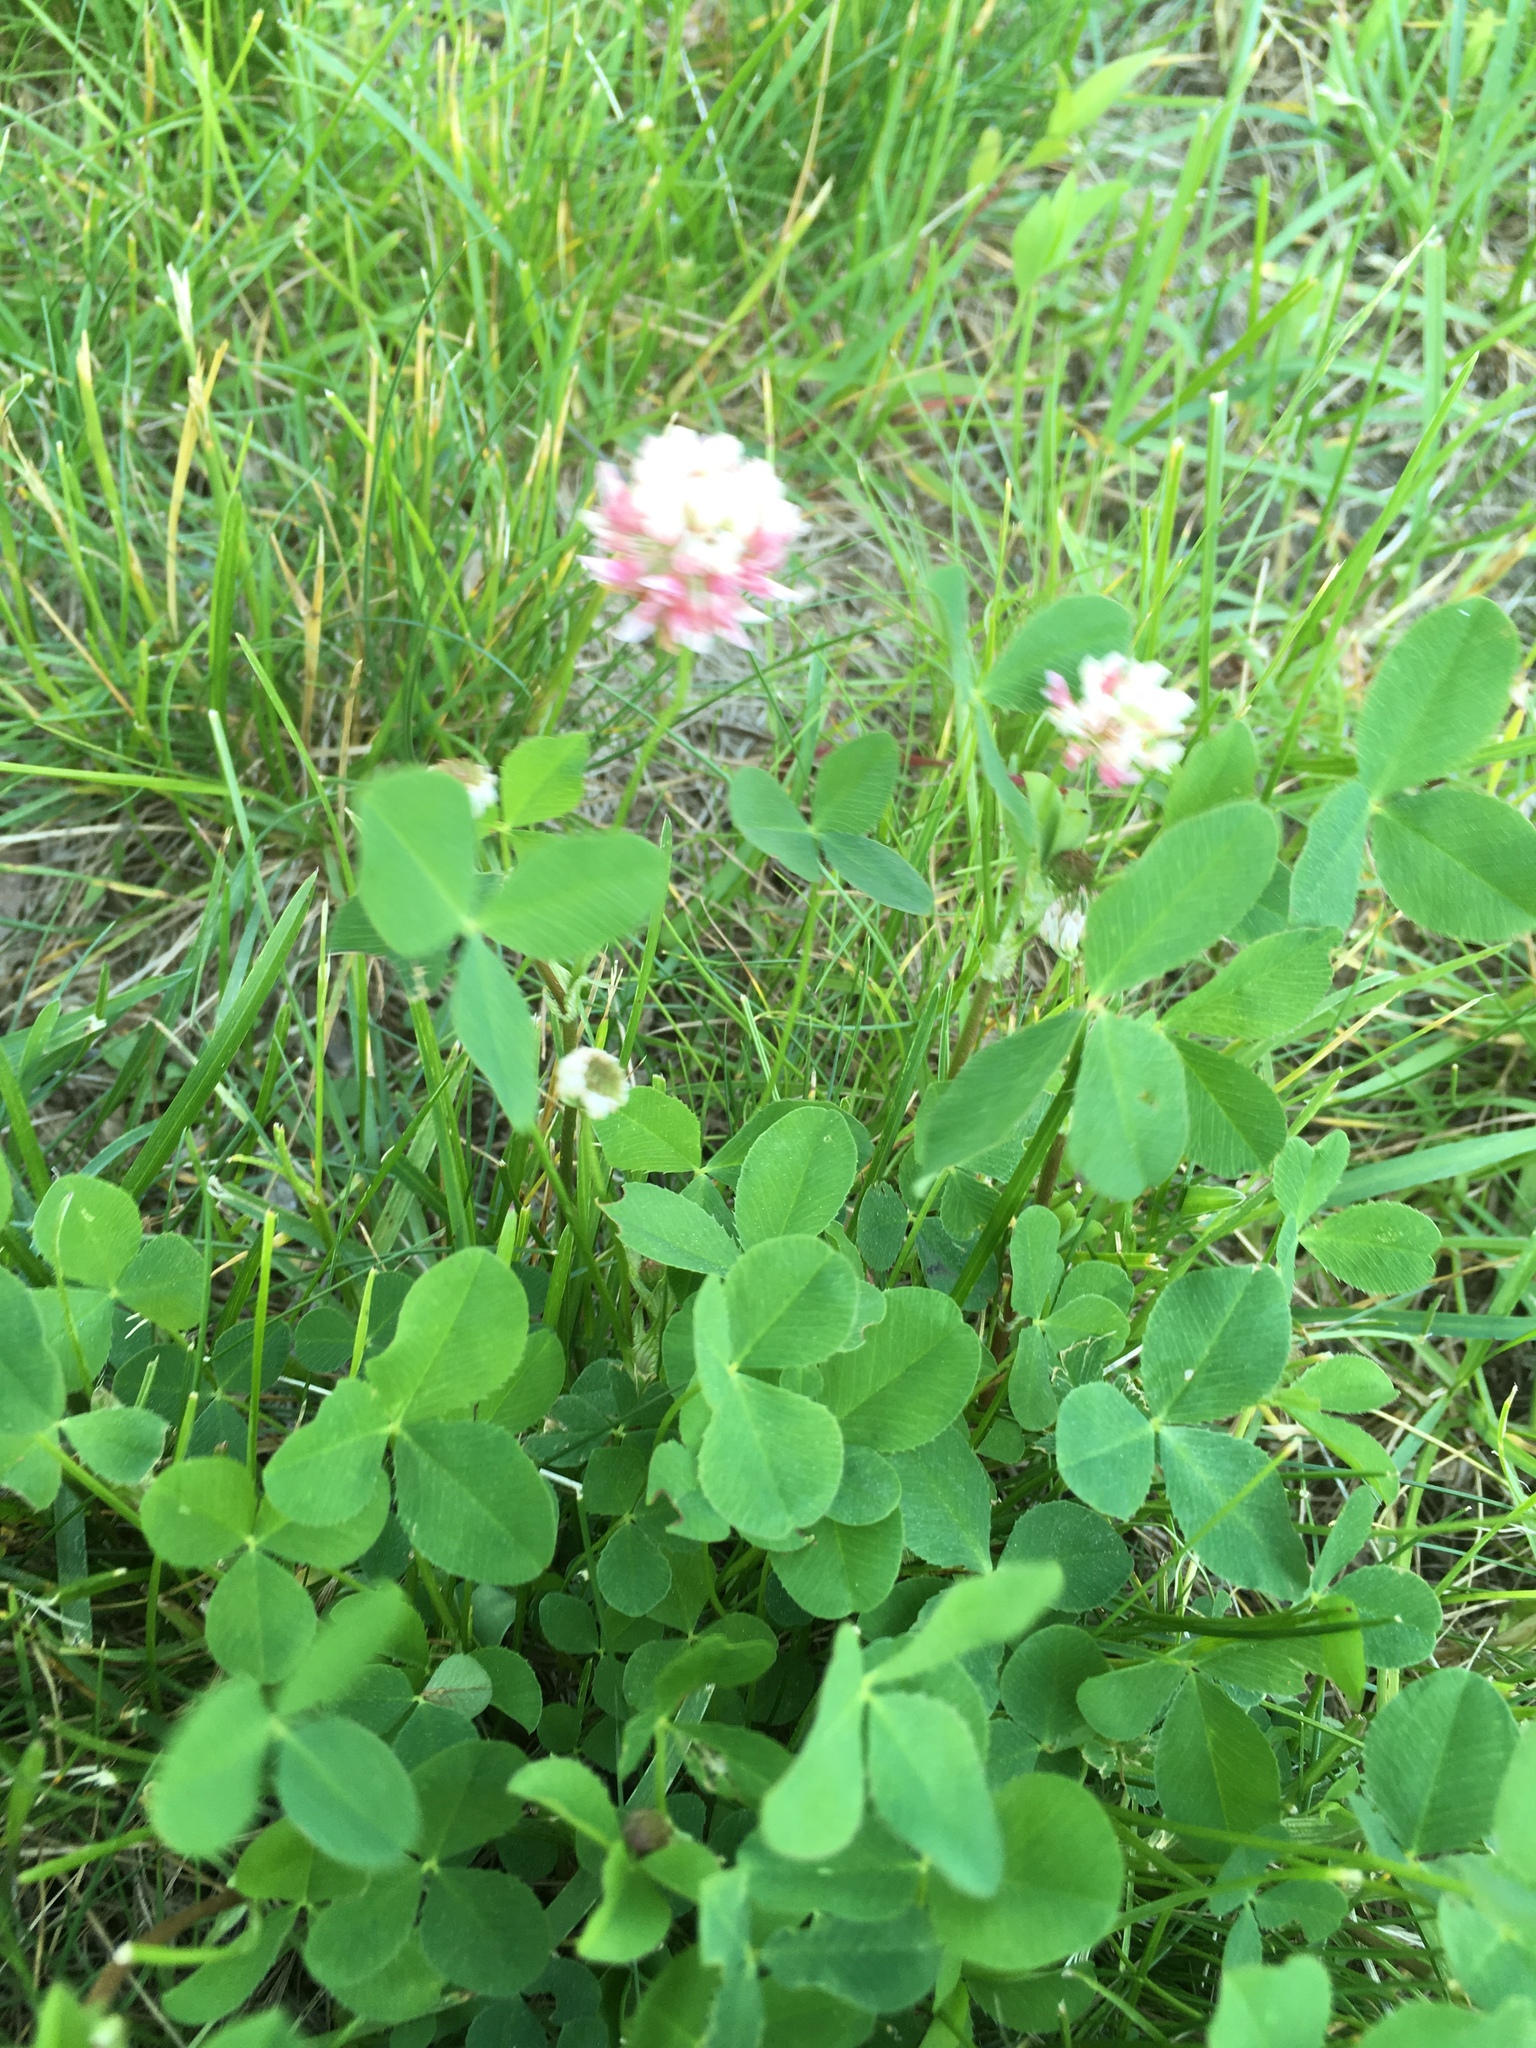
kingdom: Plantae
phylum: Tracheophyta
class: Magnoliopsida
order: Fabales
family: Fabaceae
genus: Trifolium
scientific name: Trifolium hybridum
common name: Alsike clover
